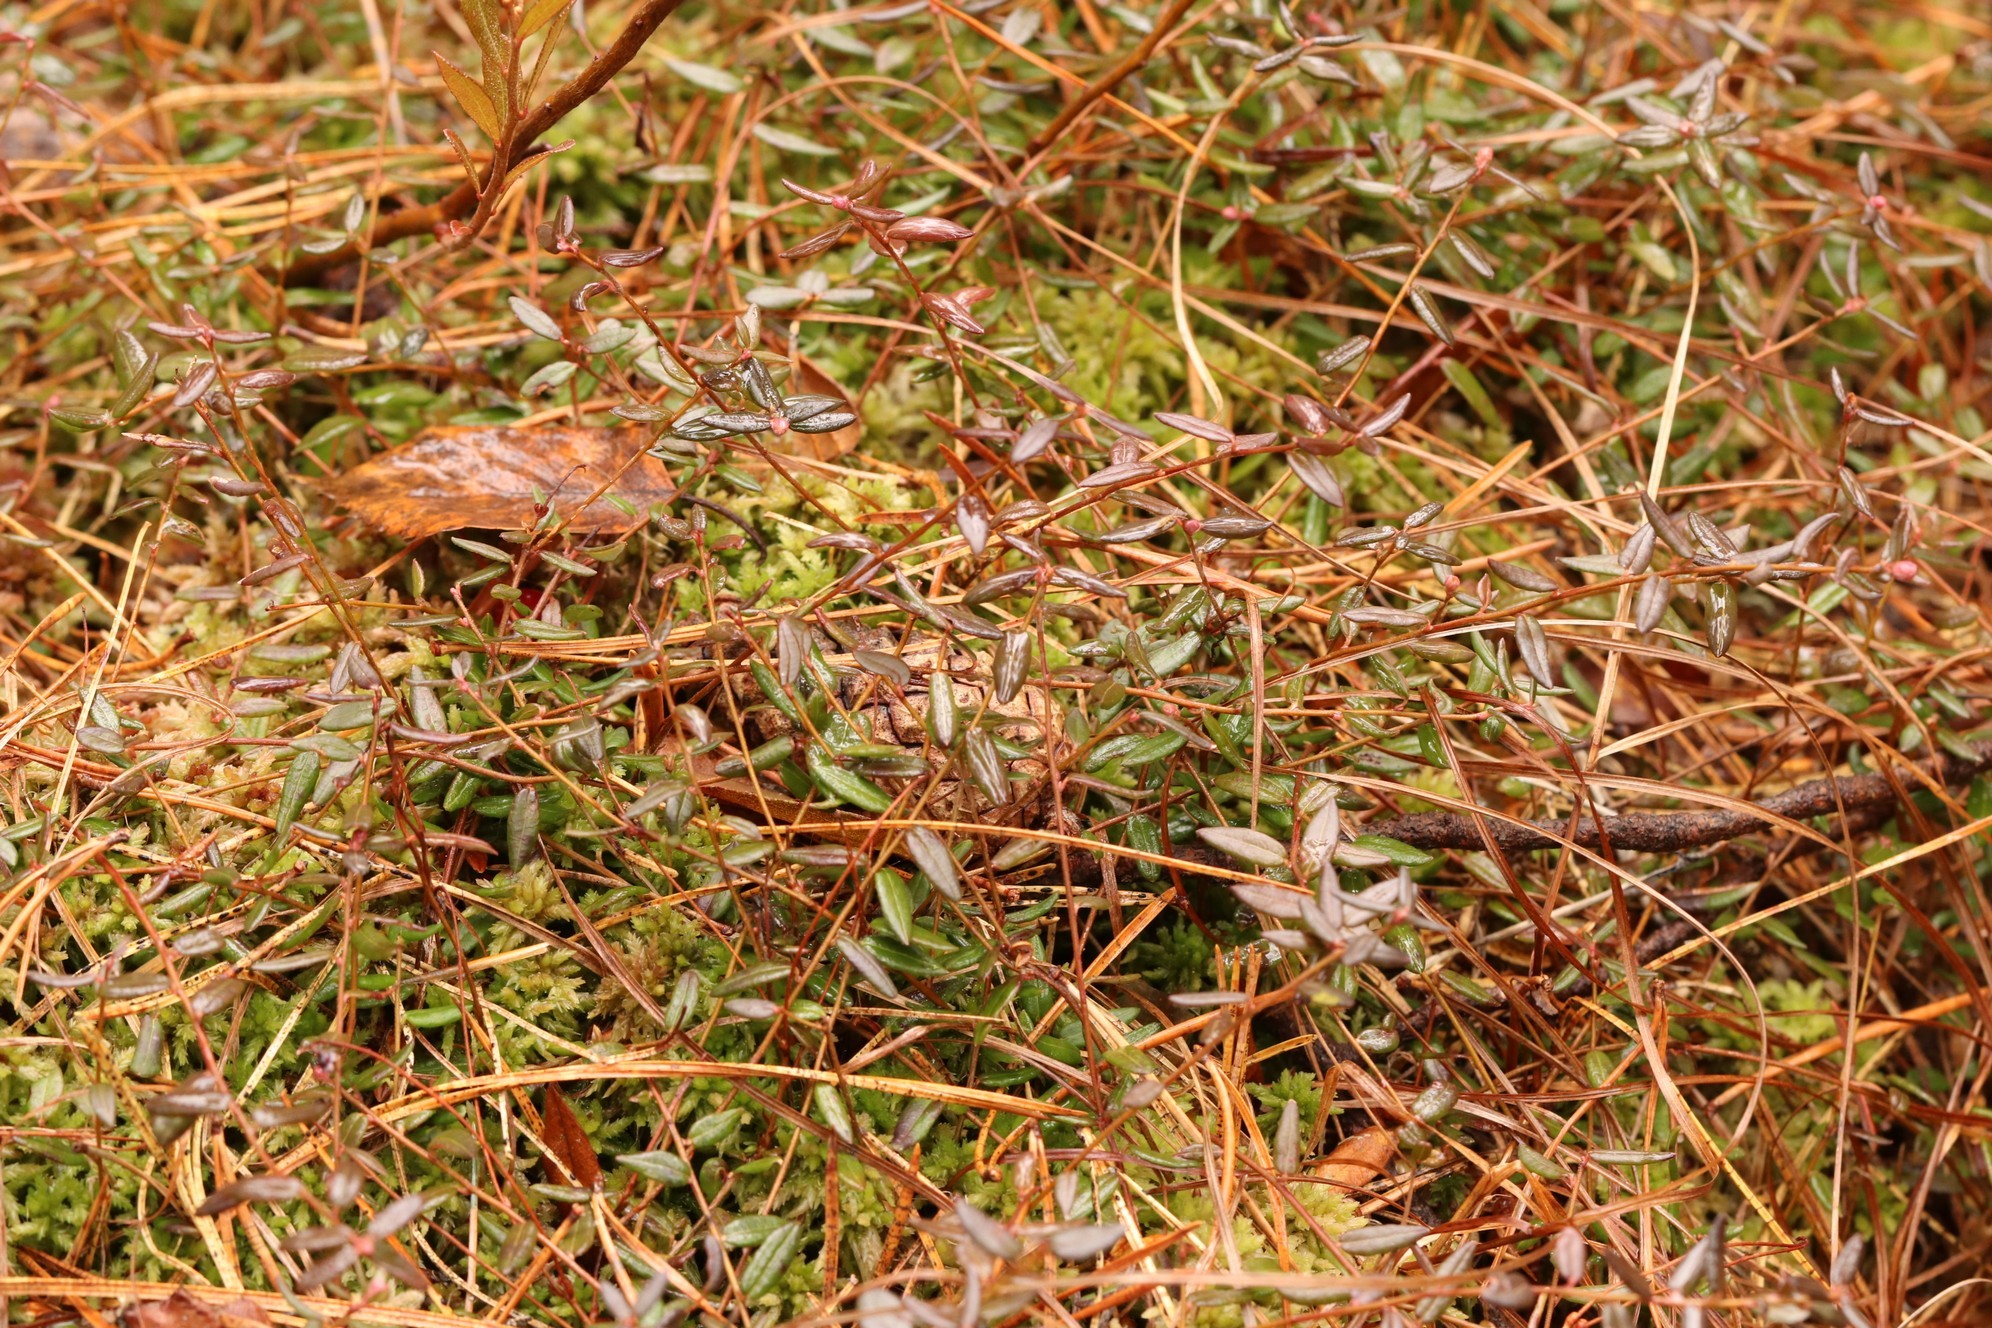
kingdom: Plantae
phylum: Tracheophyta
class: Magnoliopsida
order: Ericales
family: Ericaceae
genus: Vaccinium
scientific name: Vaccinium oxycoccos
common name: Cranberry
